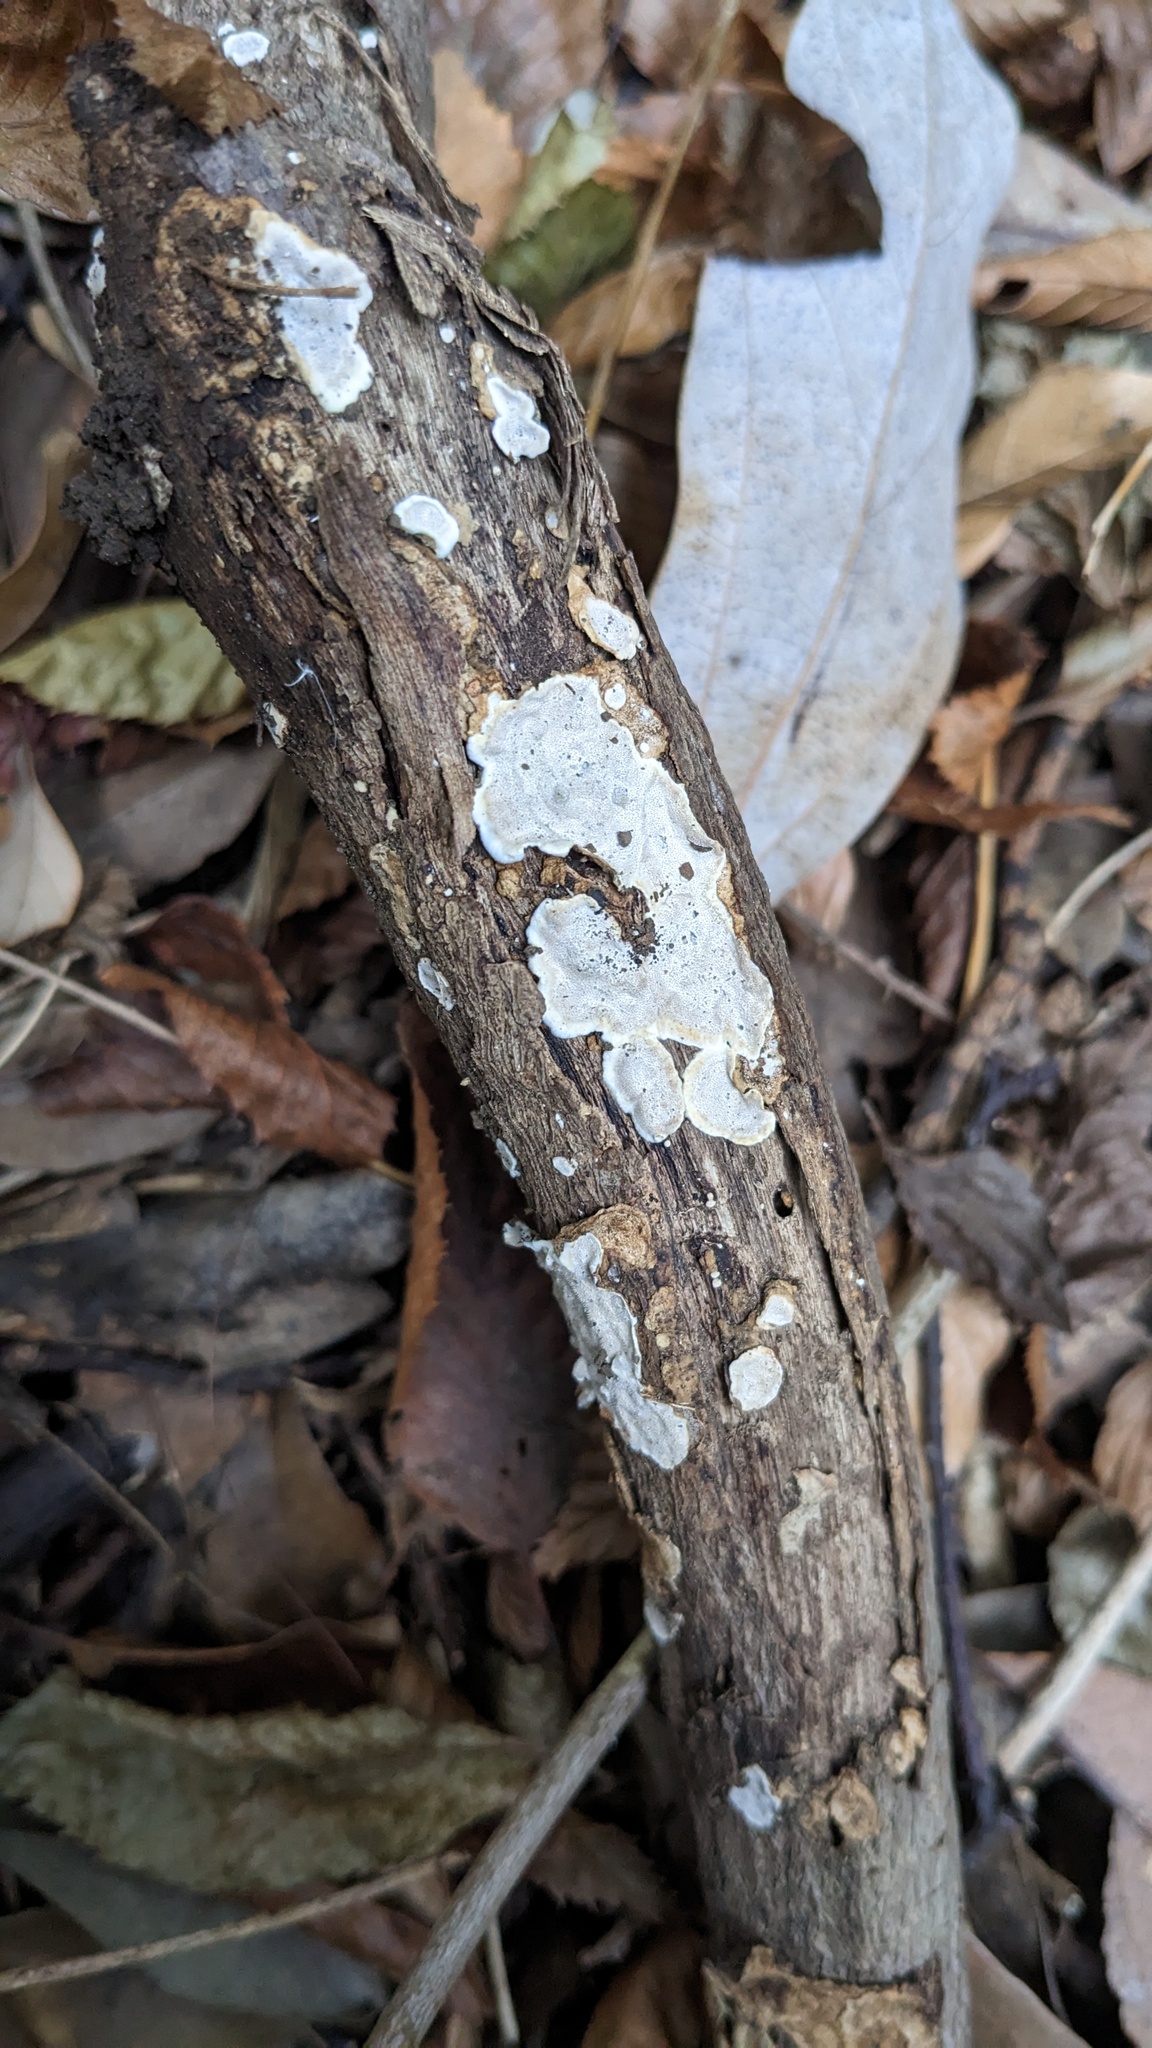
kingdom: Fungi
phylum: Basidiomycota
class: Agaricomycetes
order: Auriculariales
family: Auriculariaceae
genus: Heterochaete
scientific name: Heterochaete delicata
